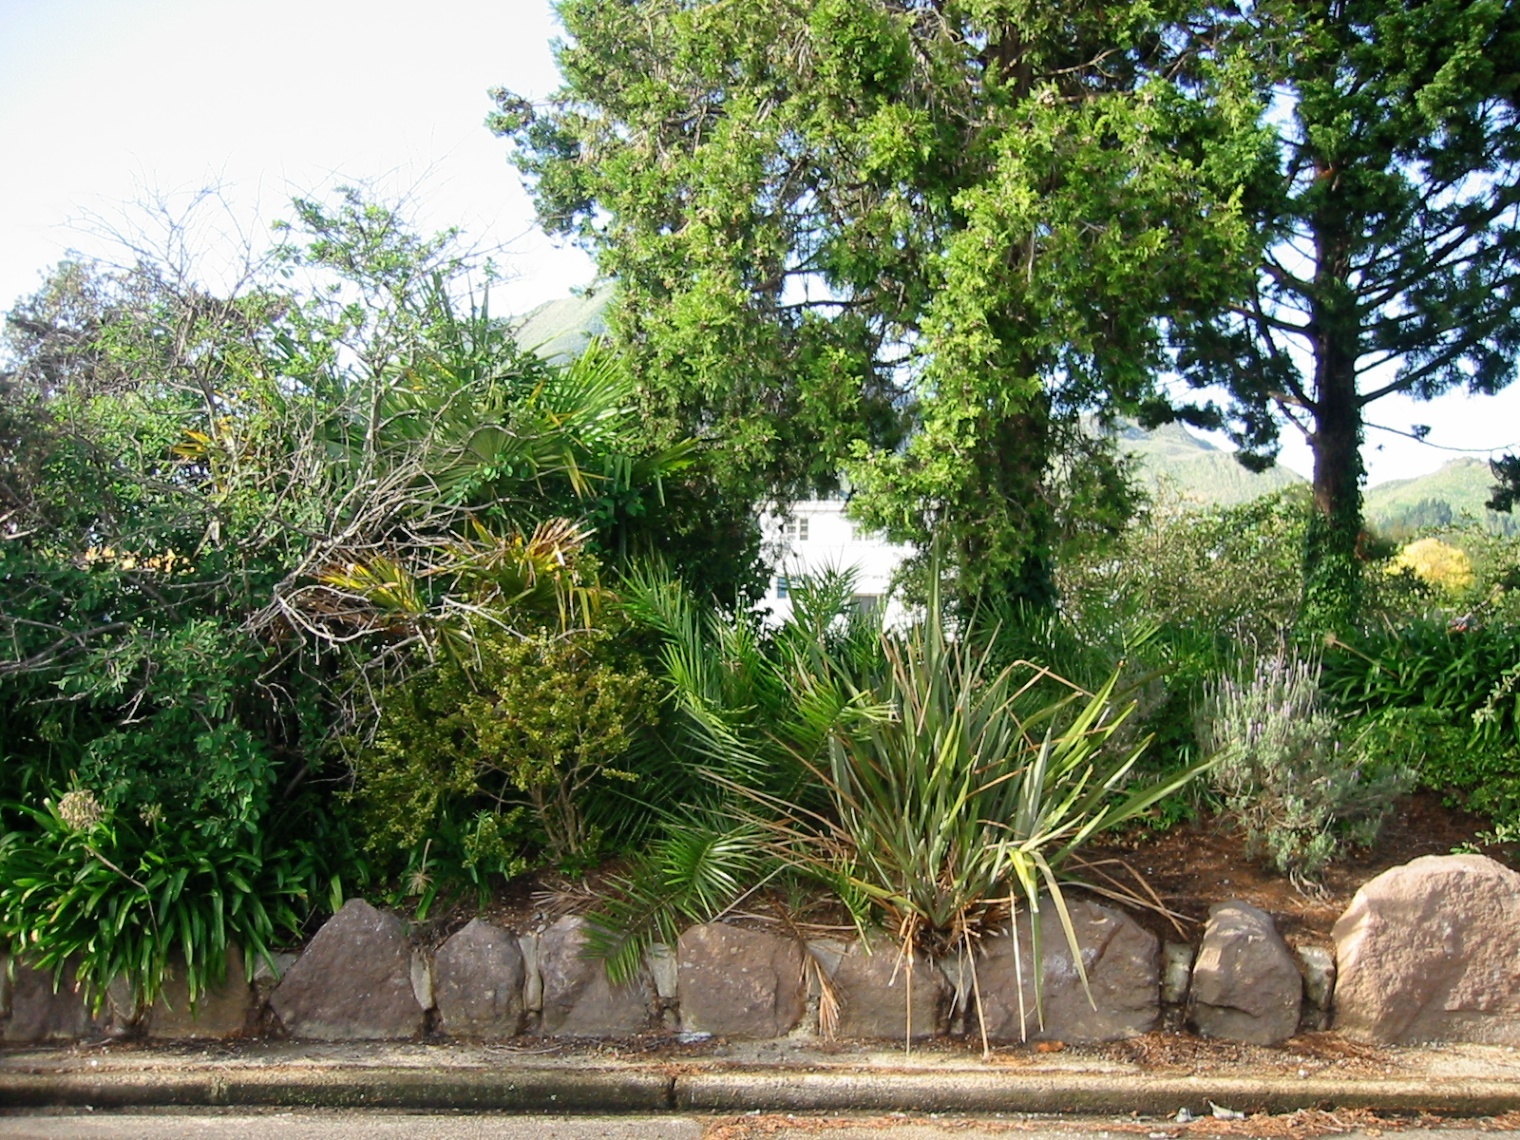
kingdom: Plantae
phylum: Tracheophyta
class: Liliopsida
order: Arecales
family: Arecaceae
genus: Phoenix
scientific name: Phoenix canariensis
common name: Canary island date palm
